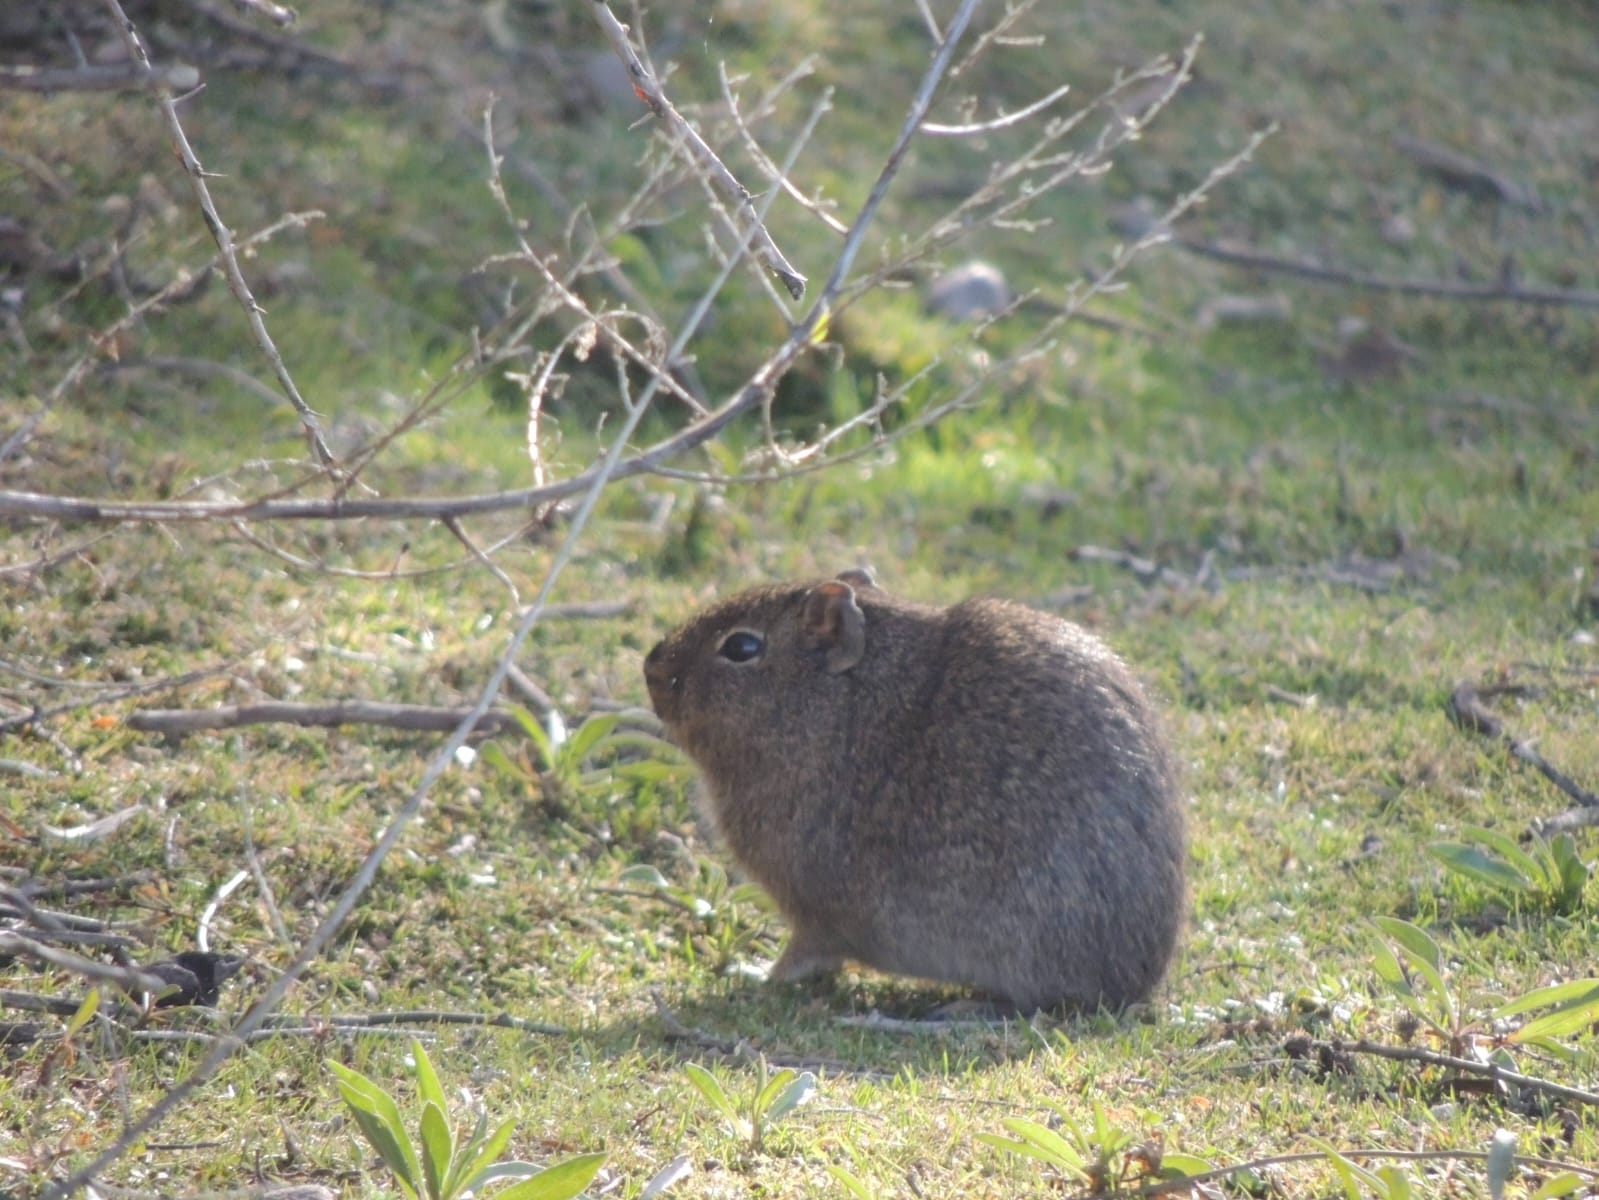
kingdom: Animalia
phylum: Chordata
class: Mammalia
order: Rodentia
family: Caviidae
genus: Galea
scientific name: Galea musteloides
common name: Common yellow-toothed cavy
